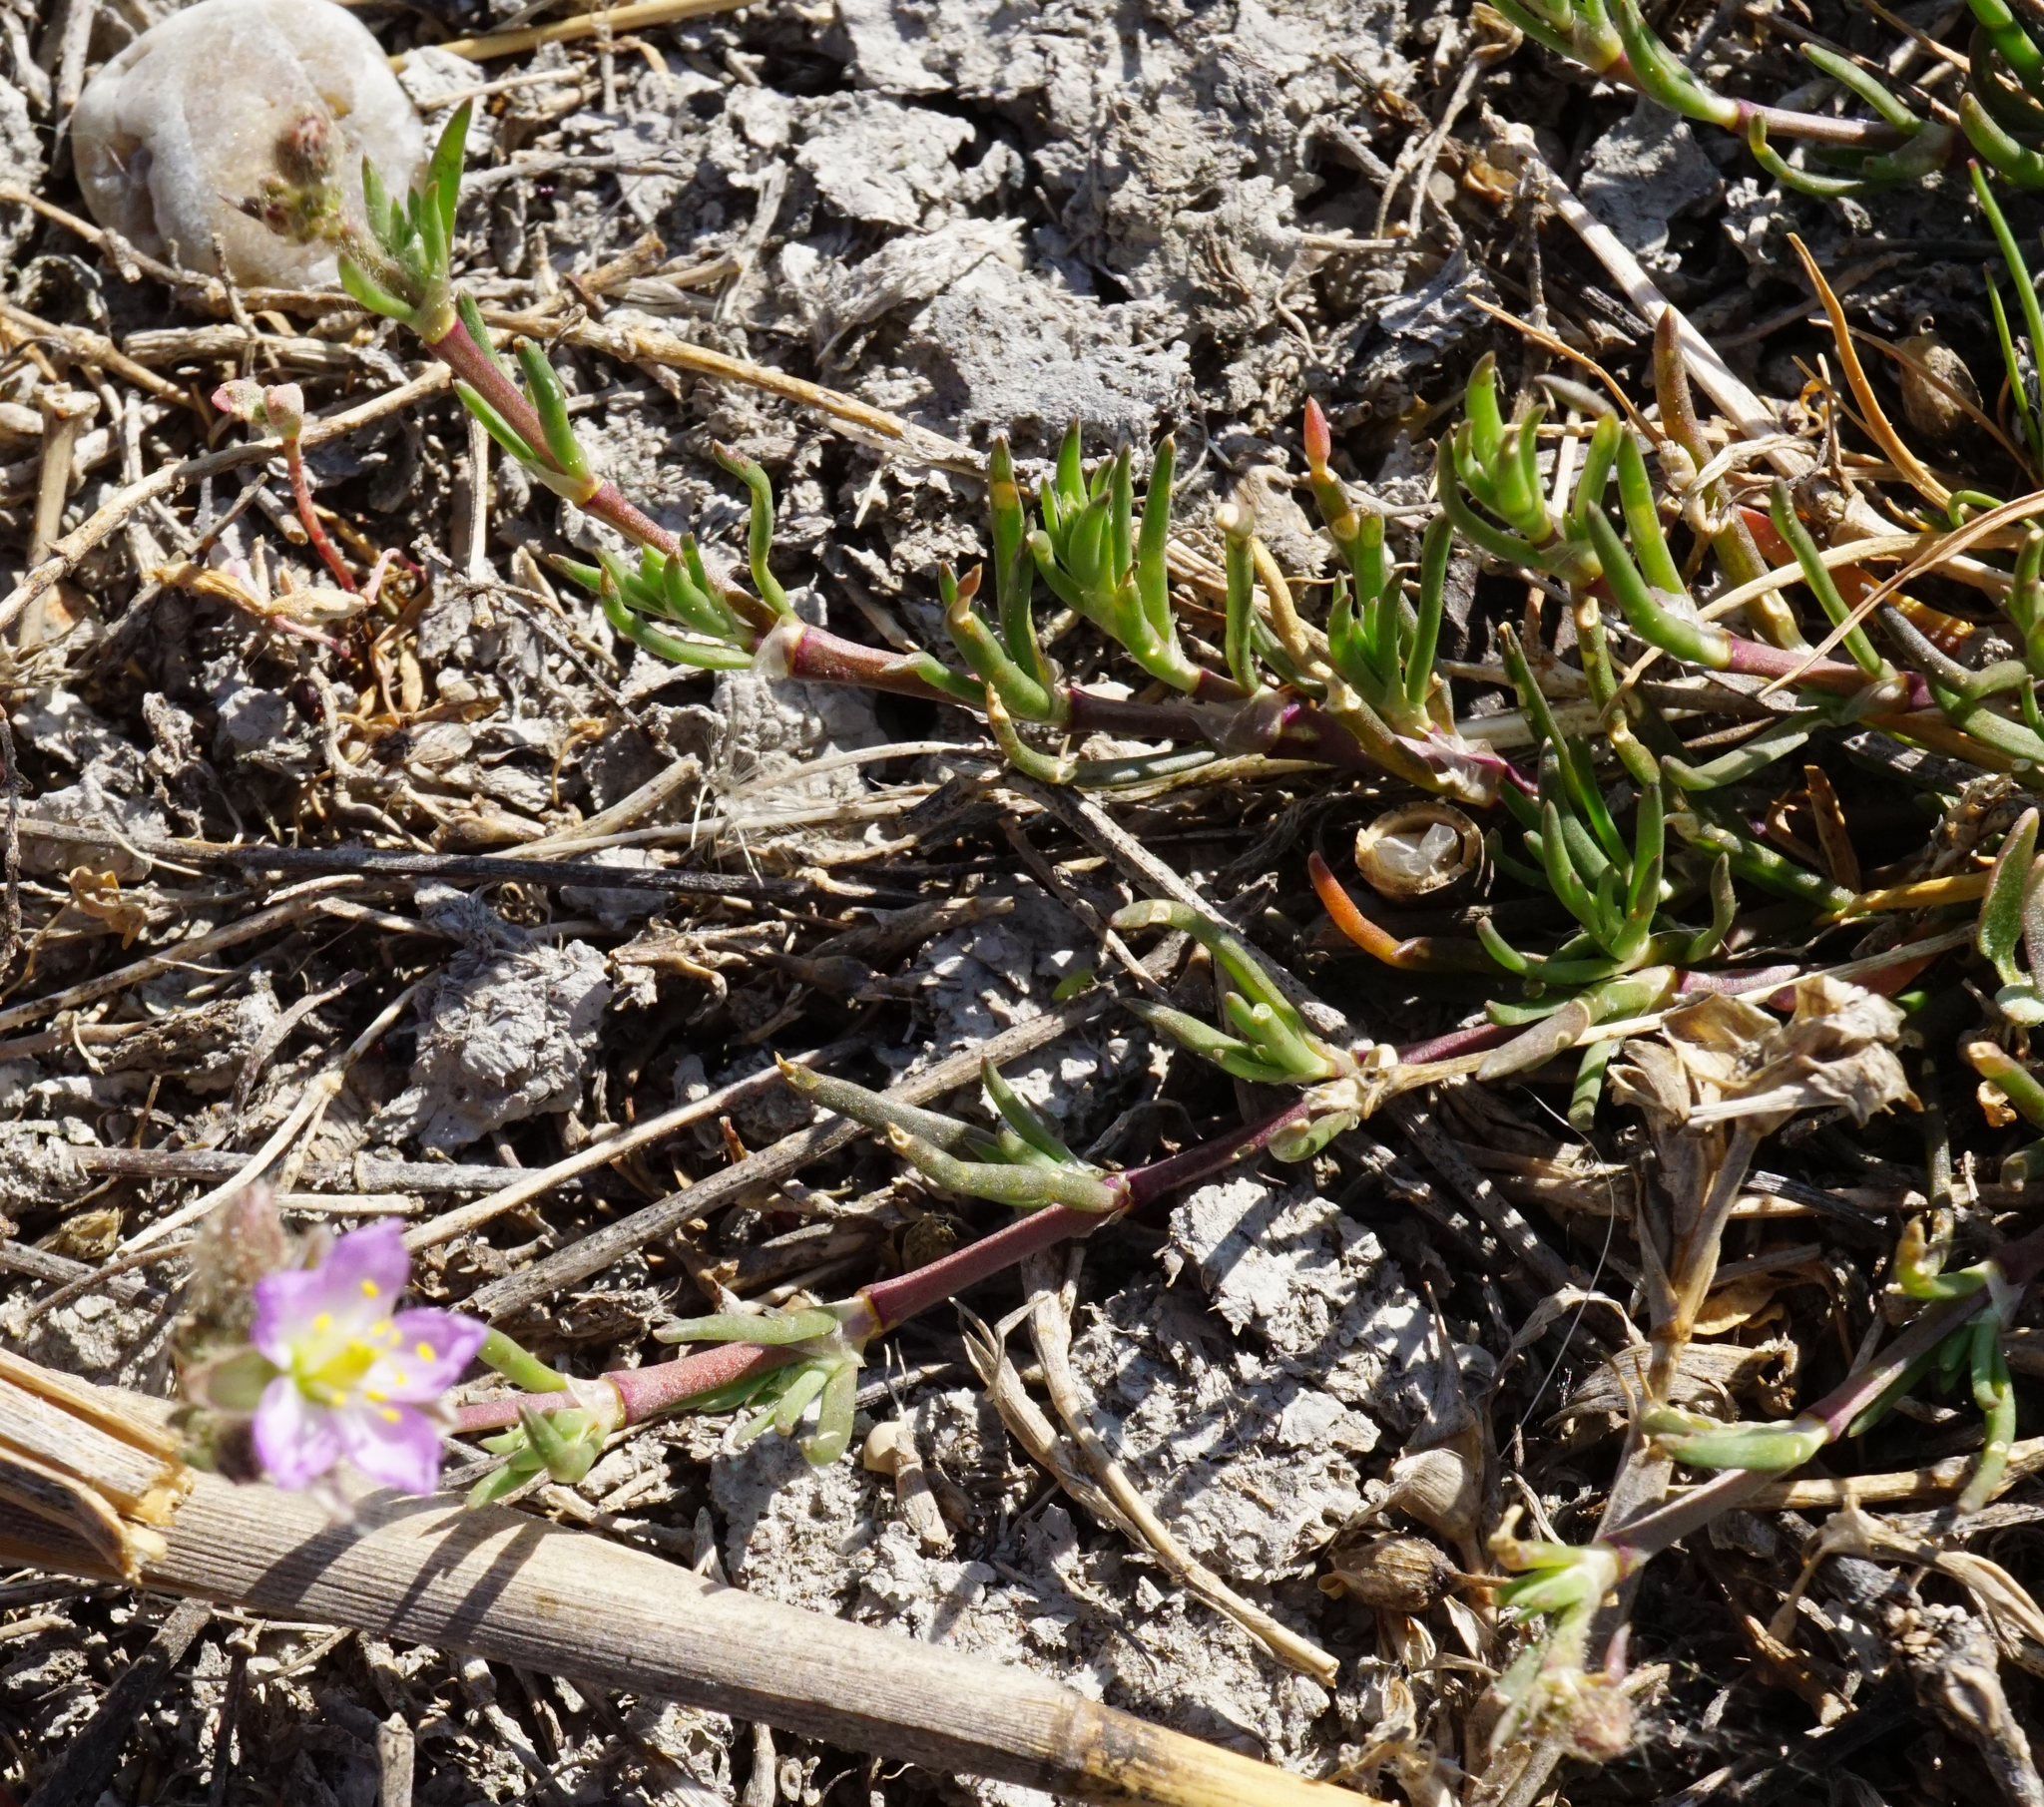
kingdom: Plantae
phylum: Tracheophyta
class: Magnoliopsida
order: Caryophyllales
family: Caryophyllaceae
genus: Spergularia
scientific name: Spergularia media
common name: Greater sea-spurrey
